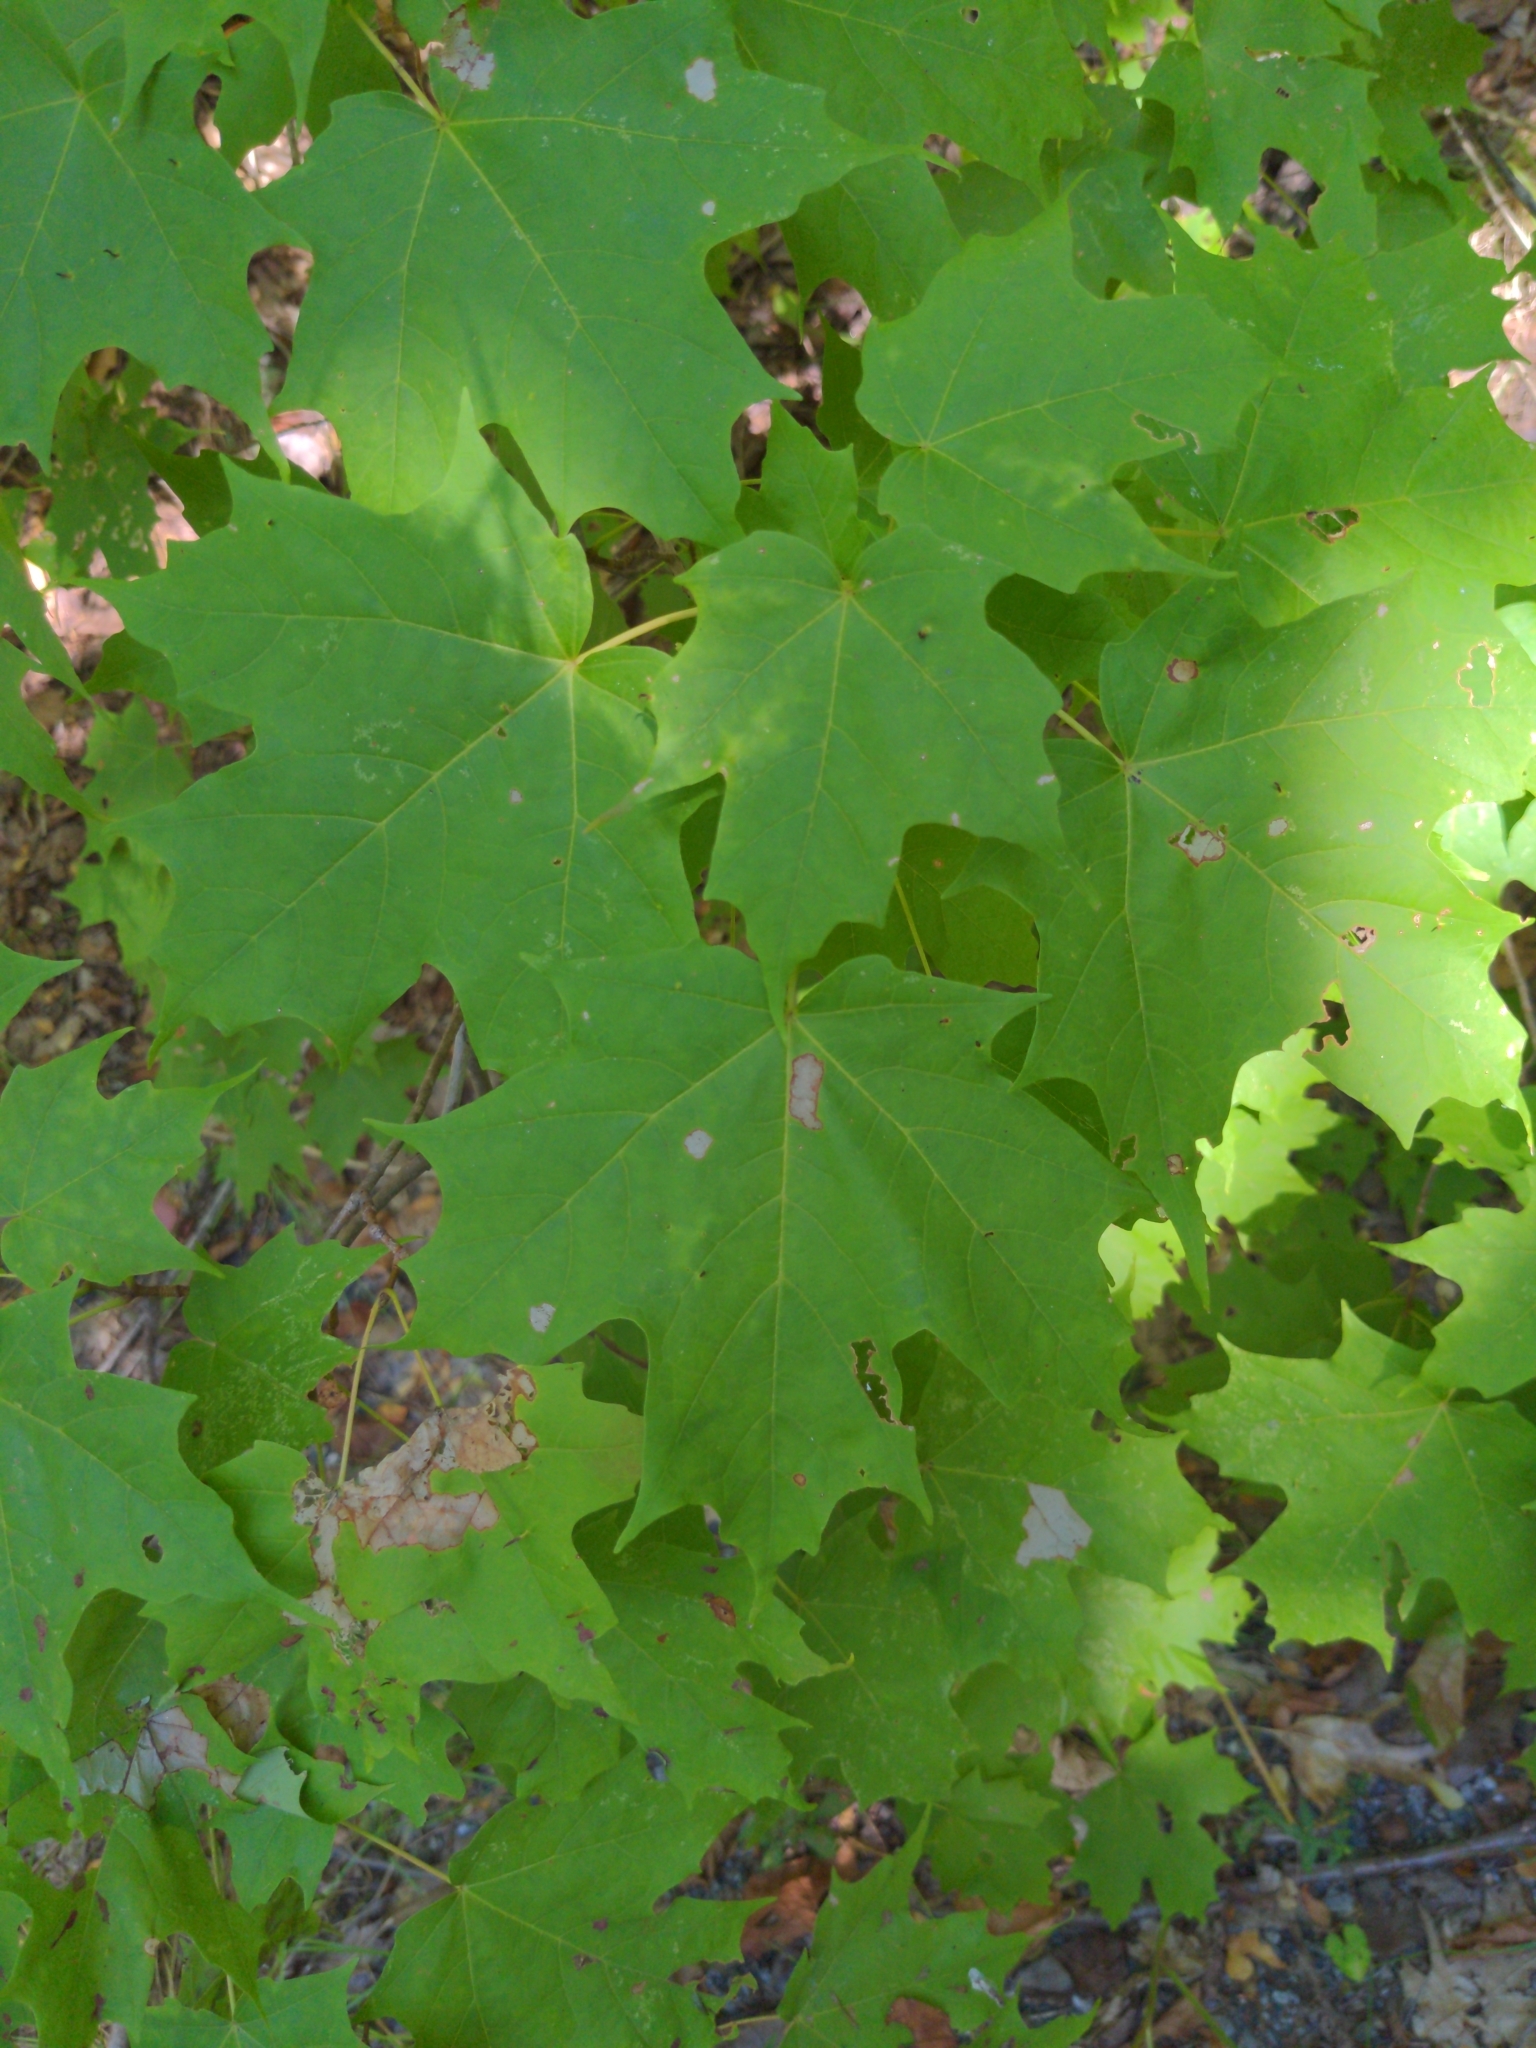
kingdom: Plantae
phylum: Tracheophyta
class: Magnoliopsida
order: Sapindales
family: Sapindaceae
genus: Acer
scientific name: Acer saccharum
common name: Sugar maple
